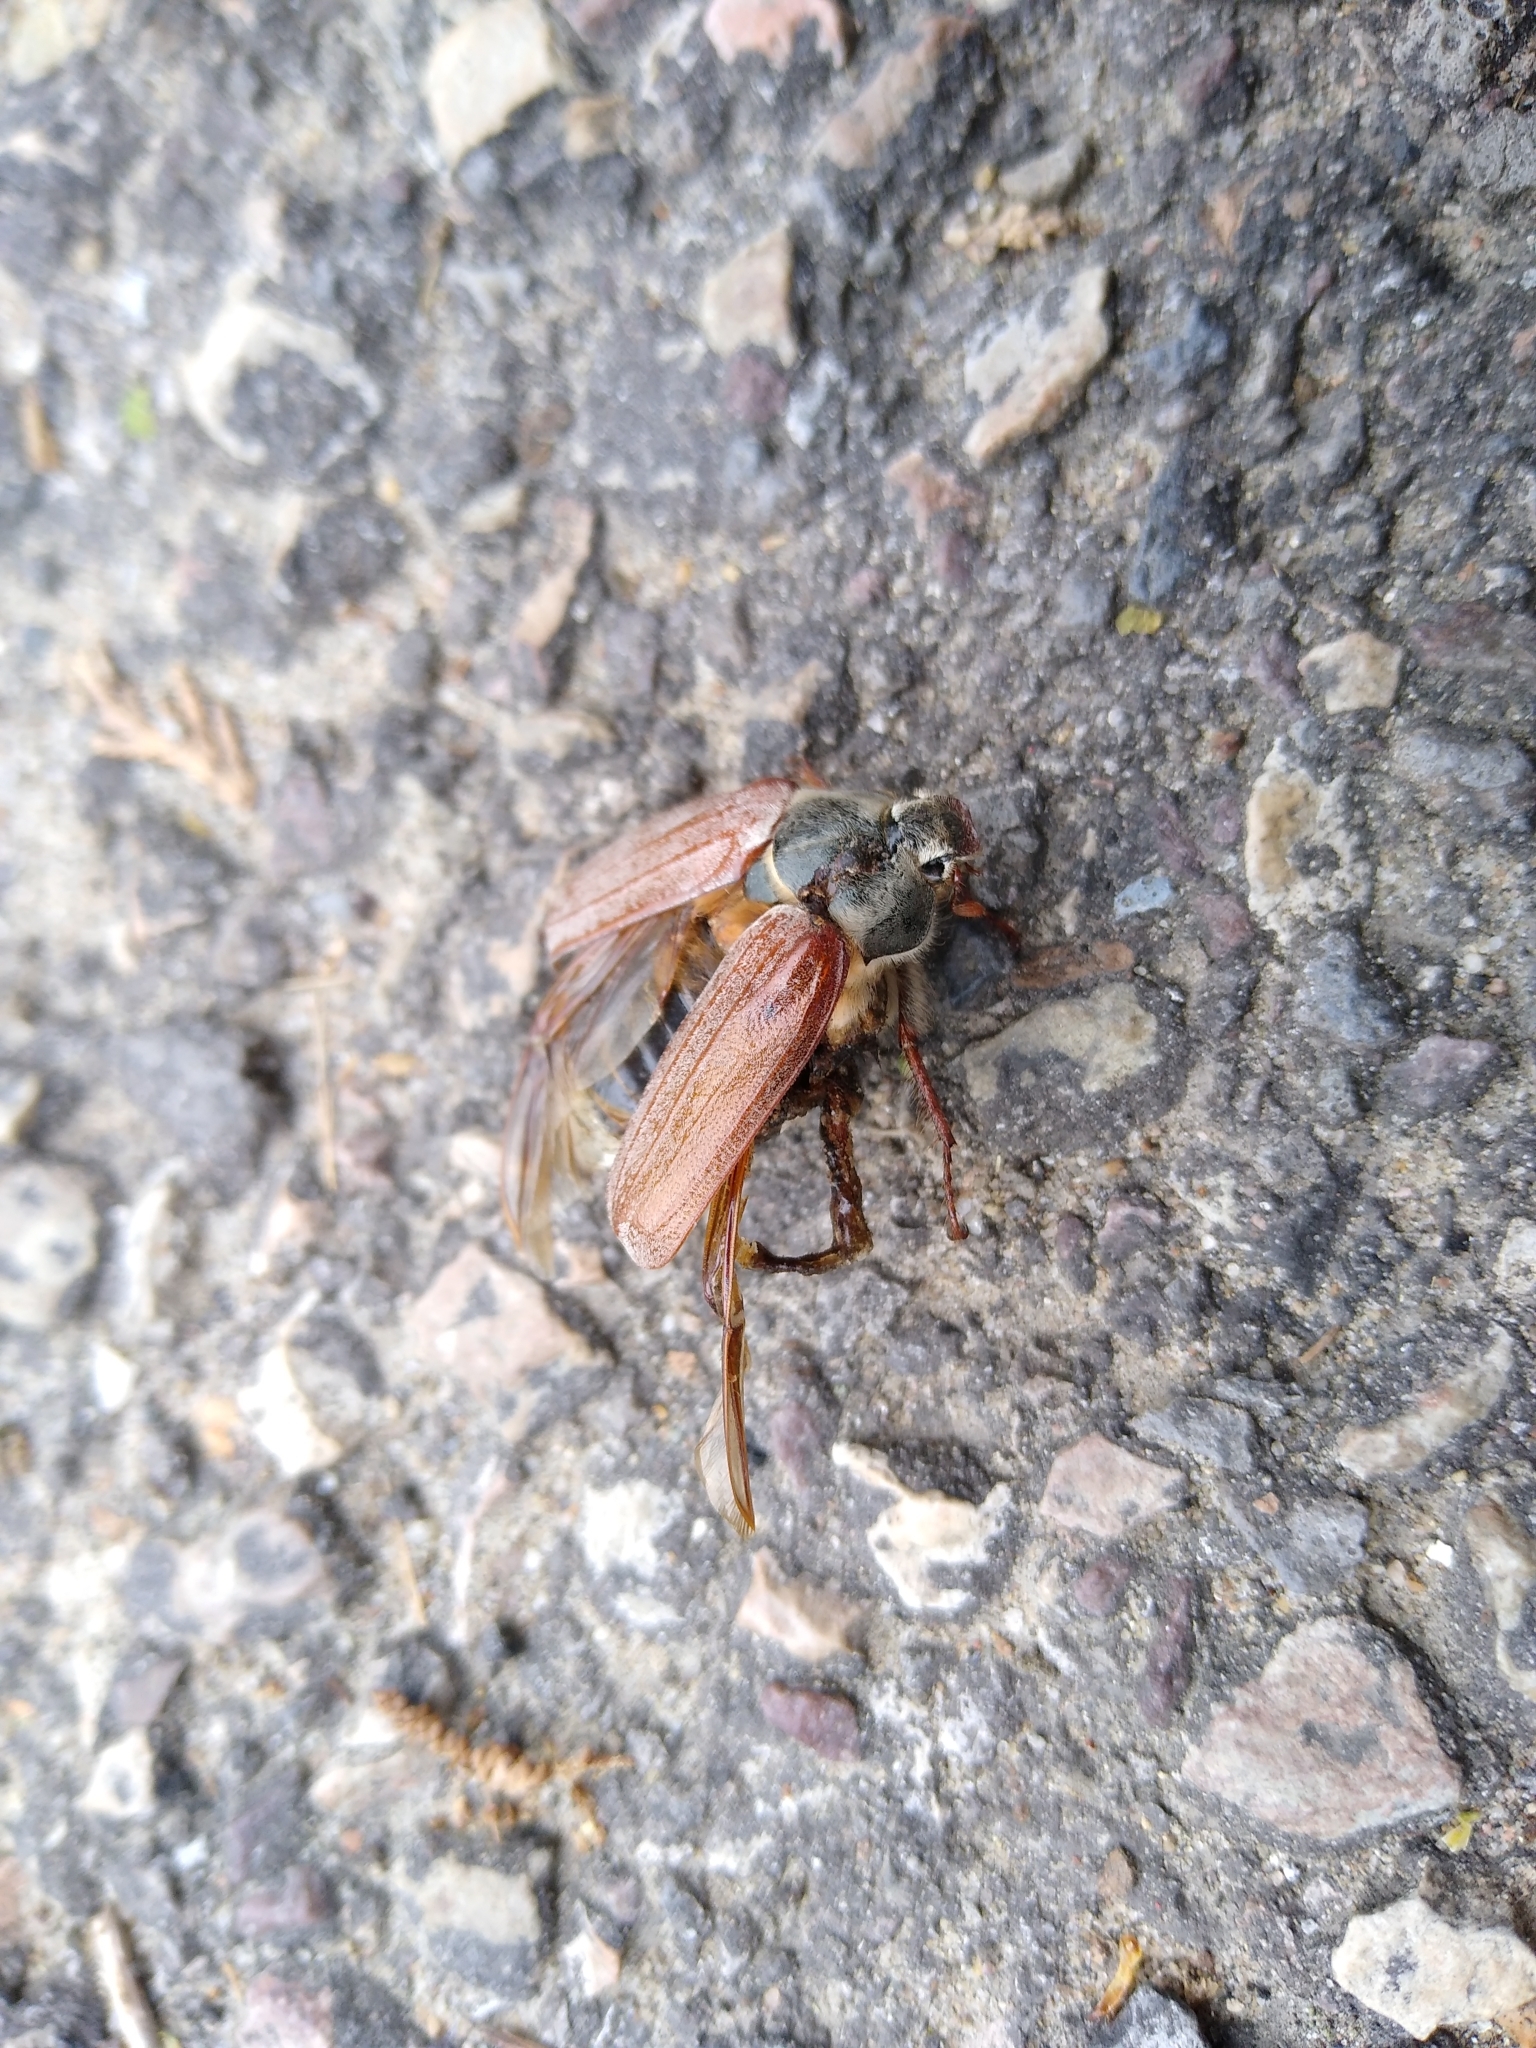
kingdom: Animalia
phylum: Arthropoda
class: Insecta
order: Coleoptera
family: Scarabaeidae
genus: Melolontha
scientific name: Melolontha melolontha
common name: Cockchafer maybeetle
